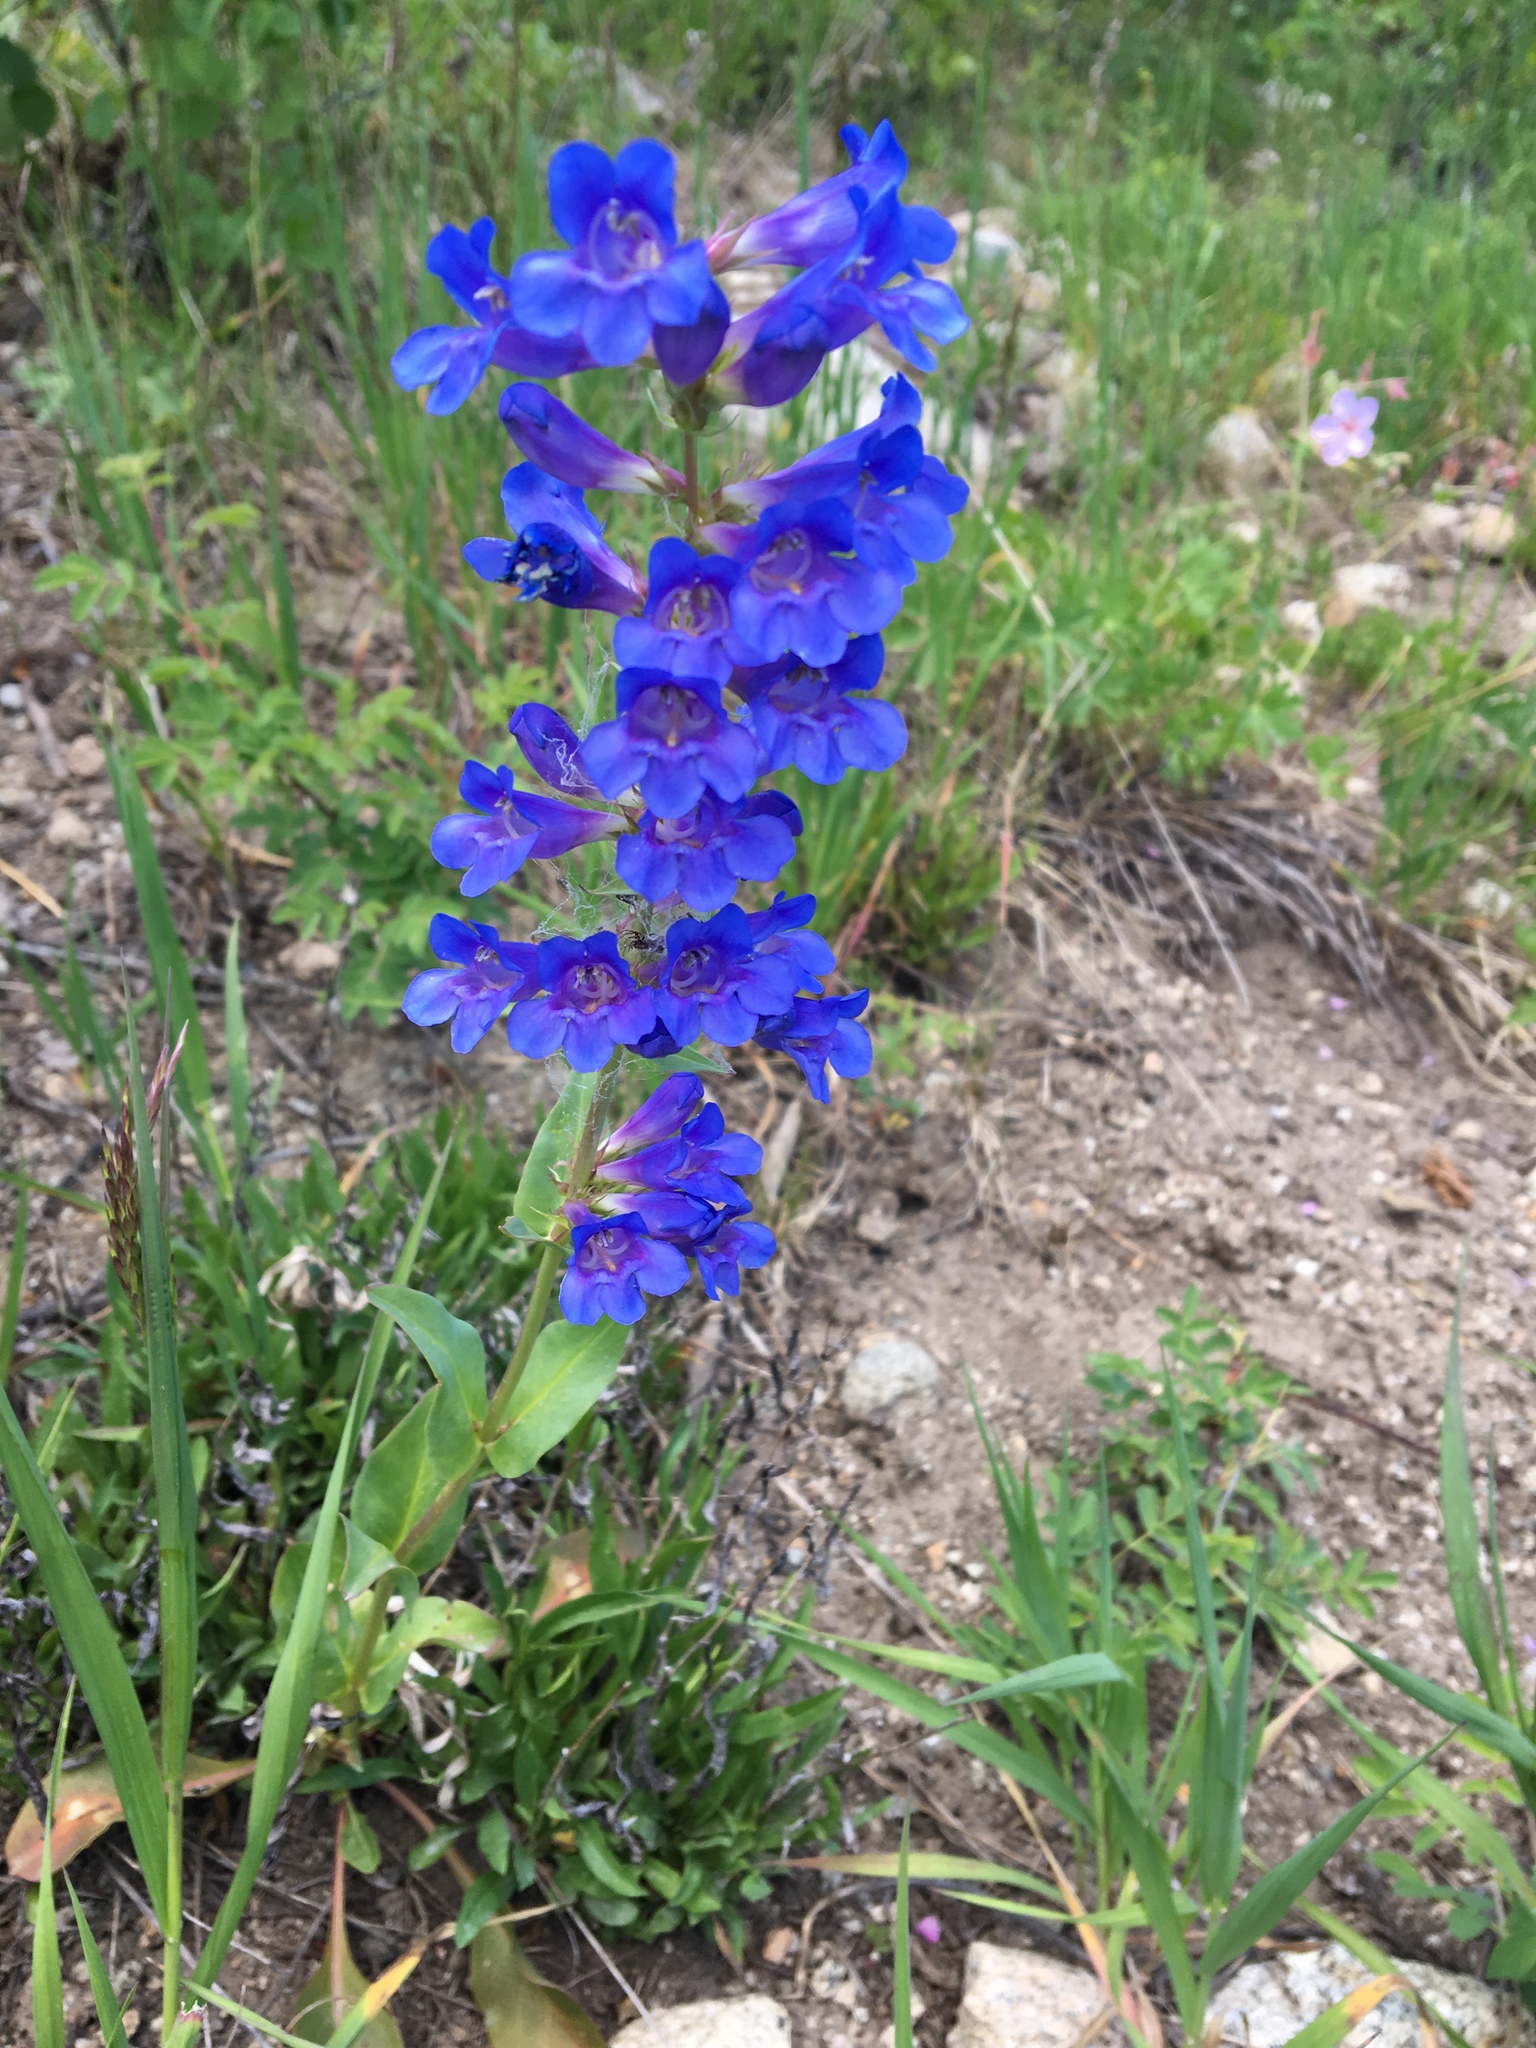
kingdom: Plantae
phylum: Tracheophyta
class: Magnoliopsida
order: Lamiales
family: Plantaginaceae
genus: Penstemon
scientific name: Penstemon cyananthus
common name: Wasatch penstemon
